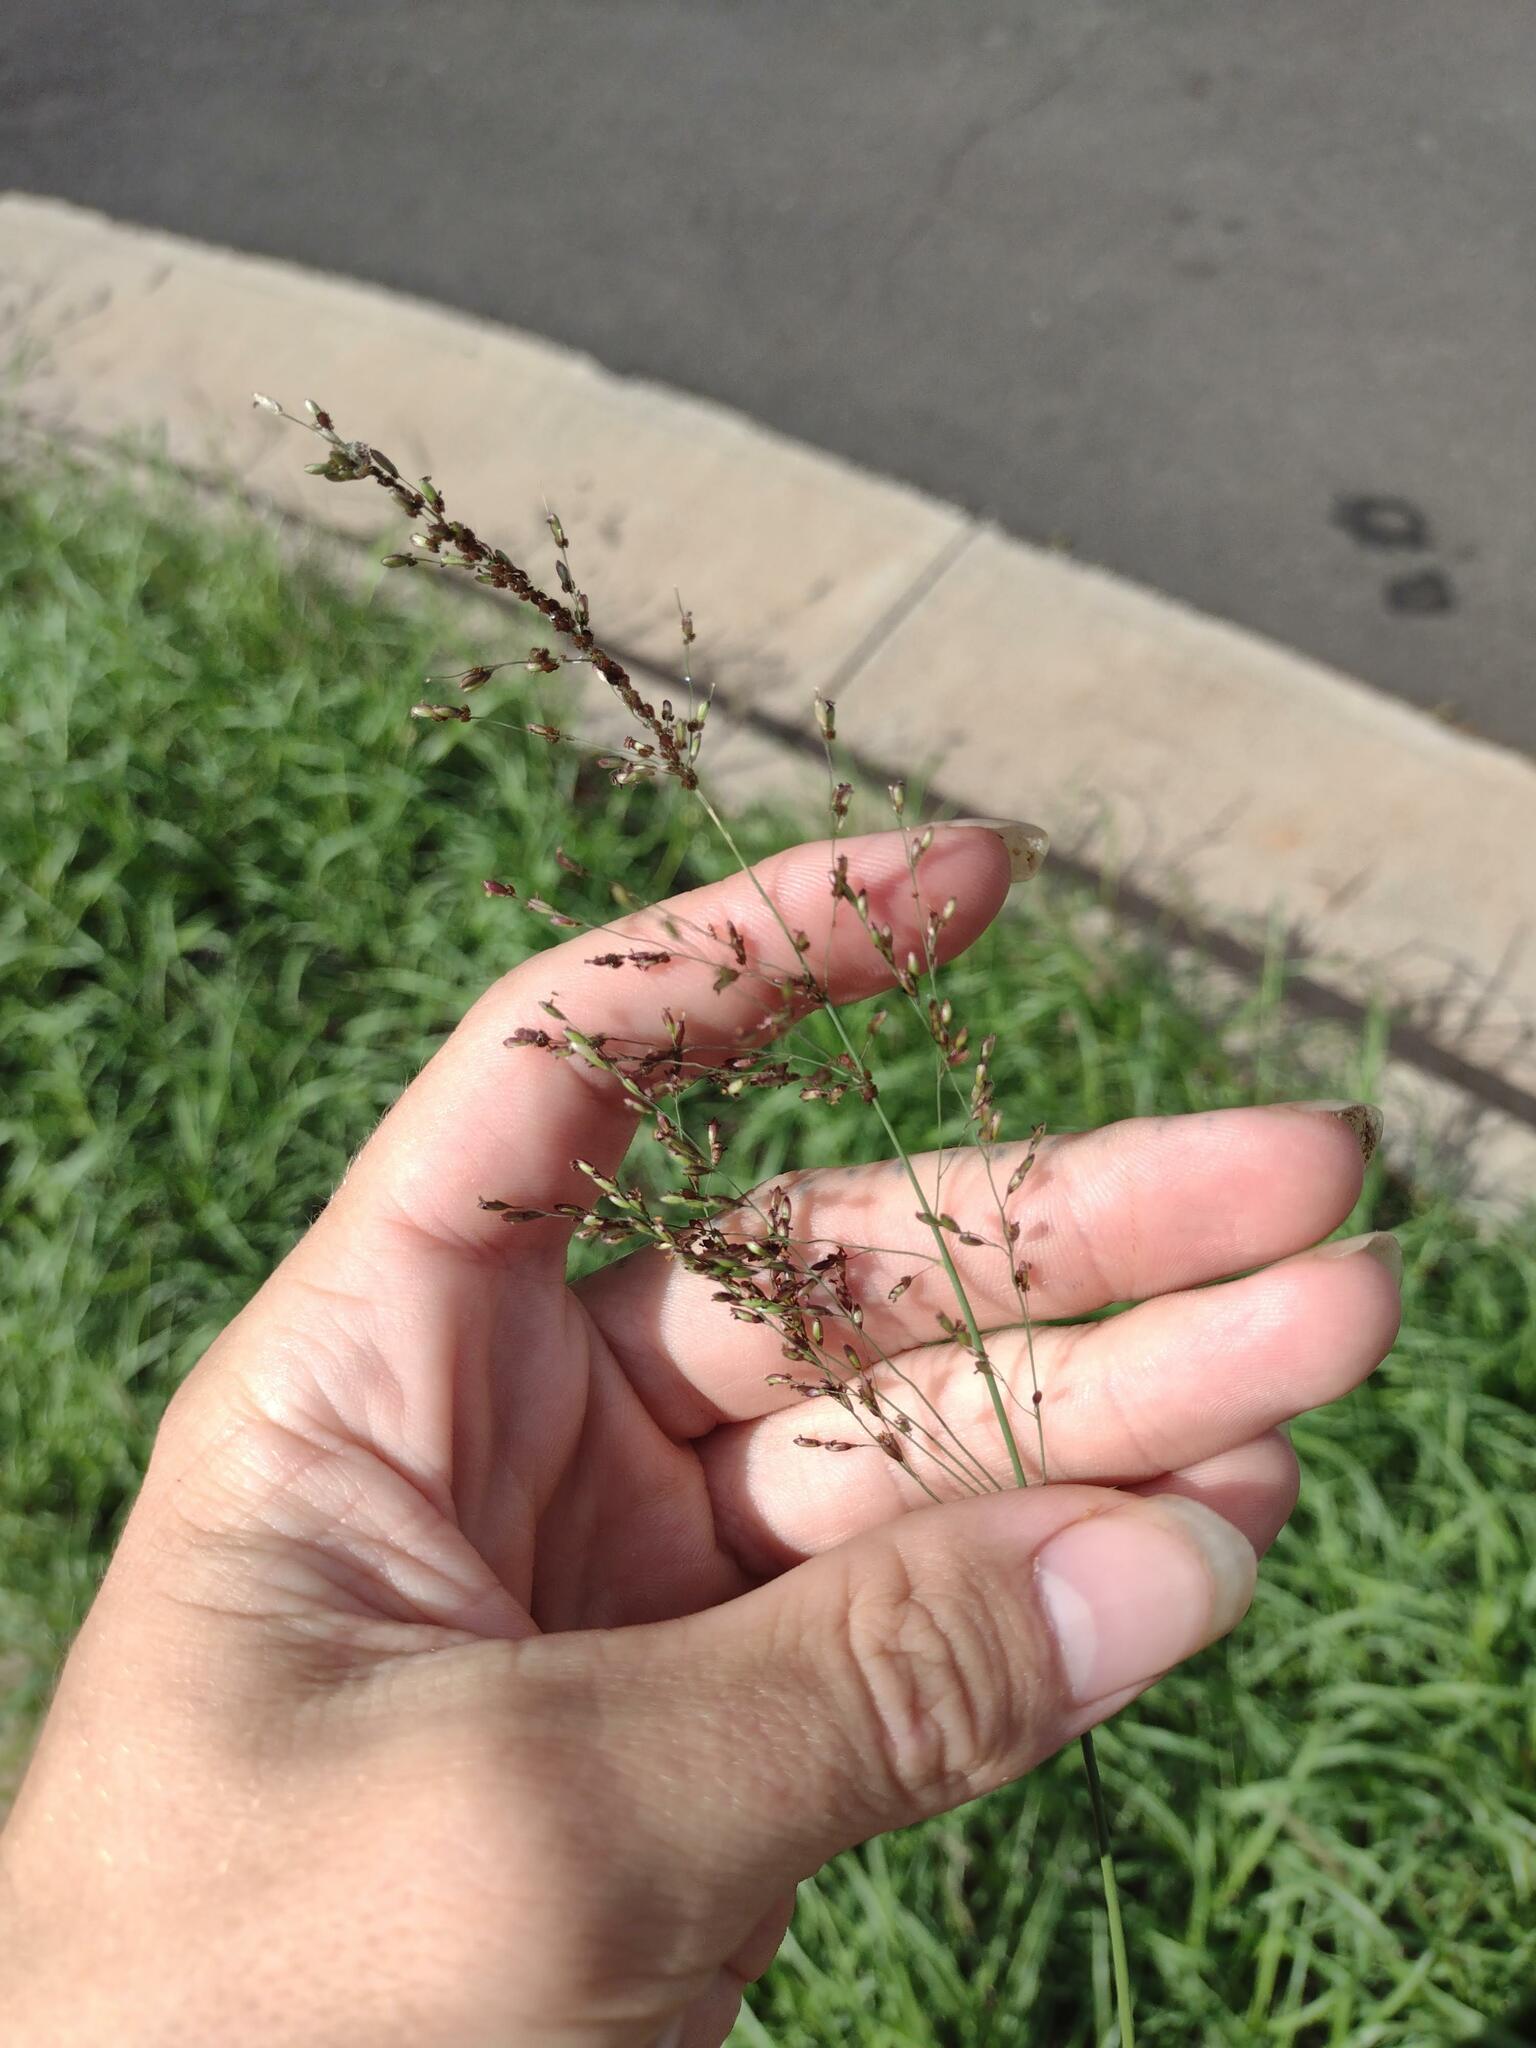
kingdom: Plantae
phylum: Tracheophyta
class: Liliopsida
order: Poales
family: Poaceae
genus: Megathyrsus
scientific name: Megathyrsus maximus
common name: Guineagrass
